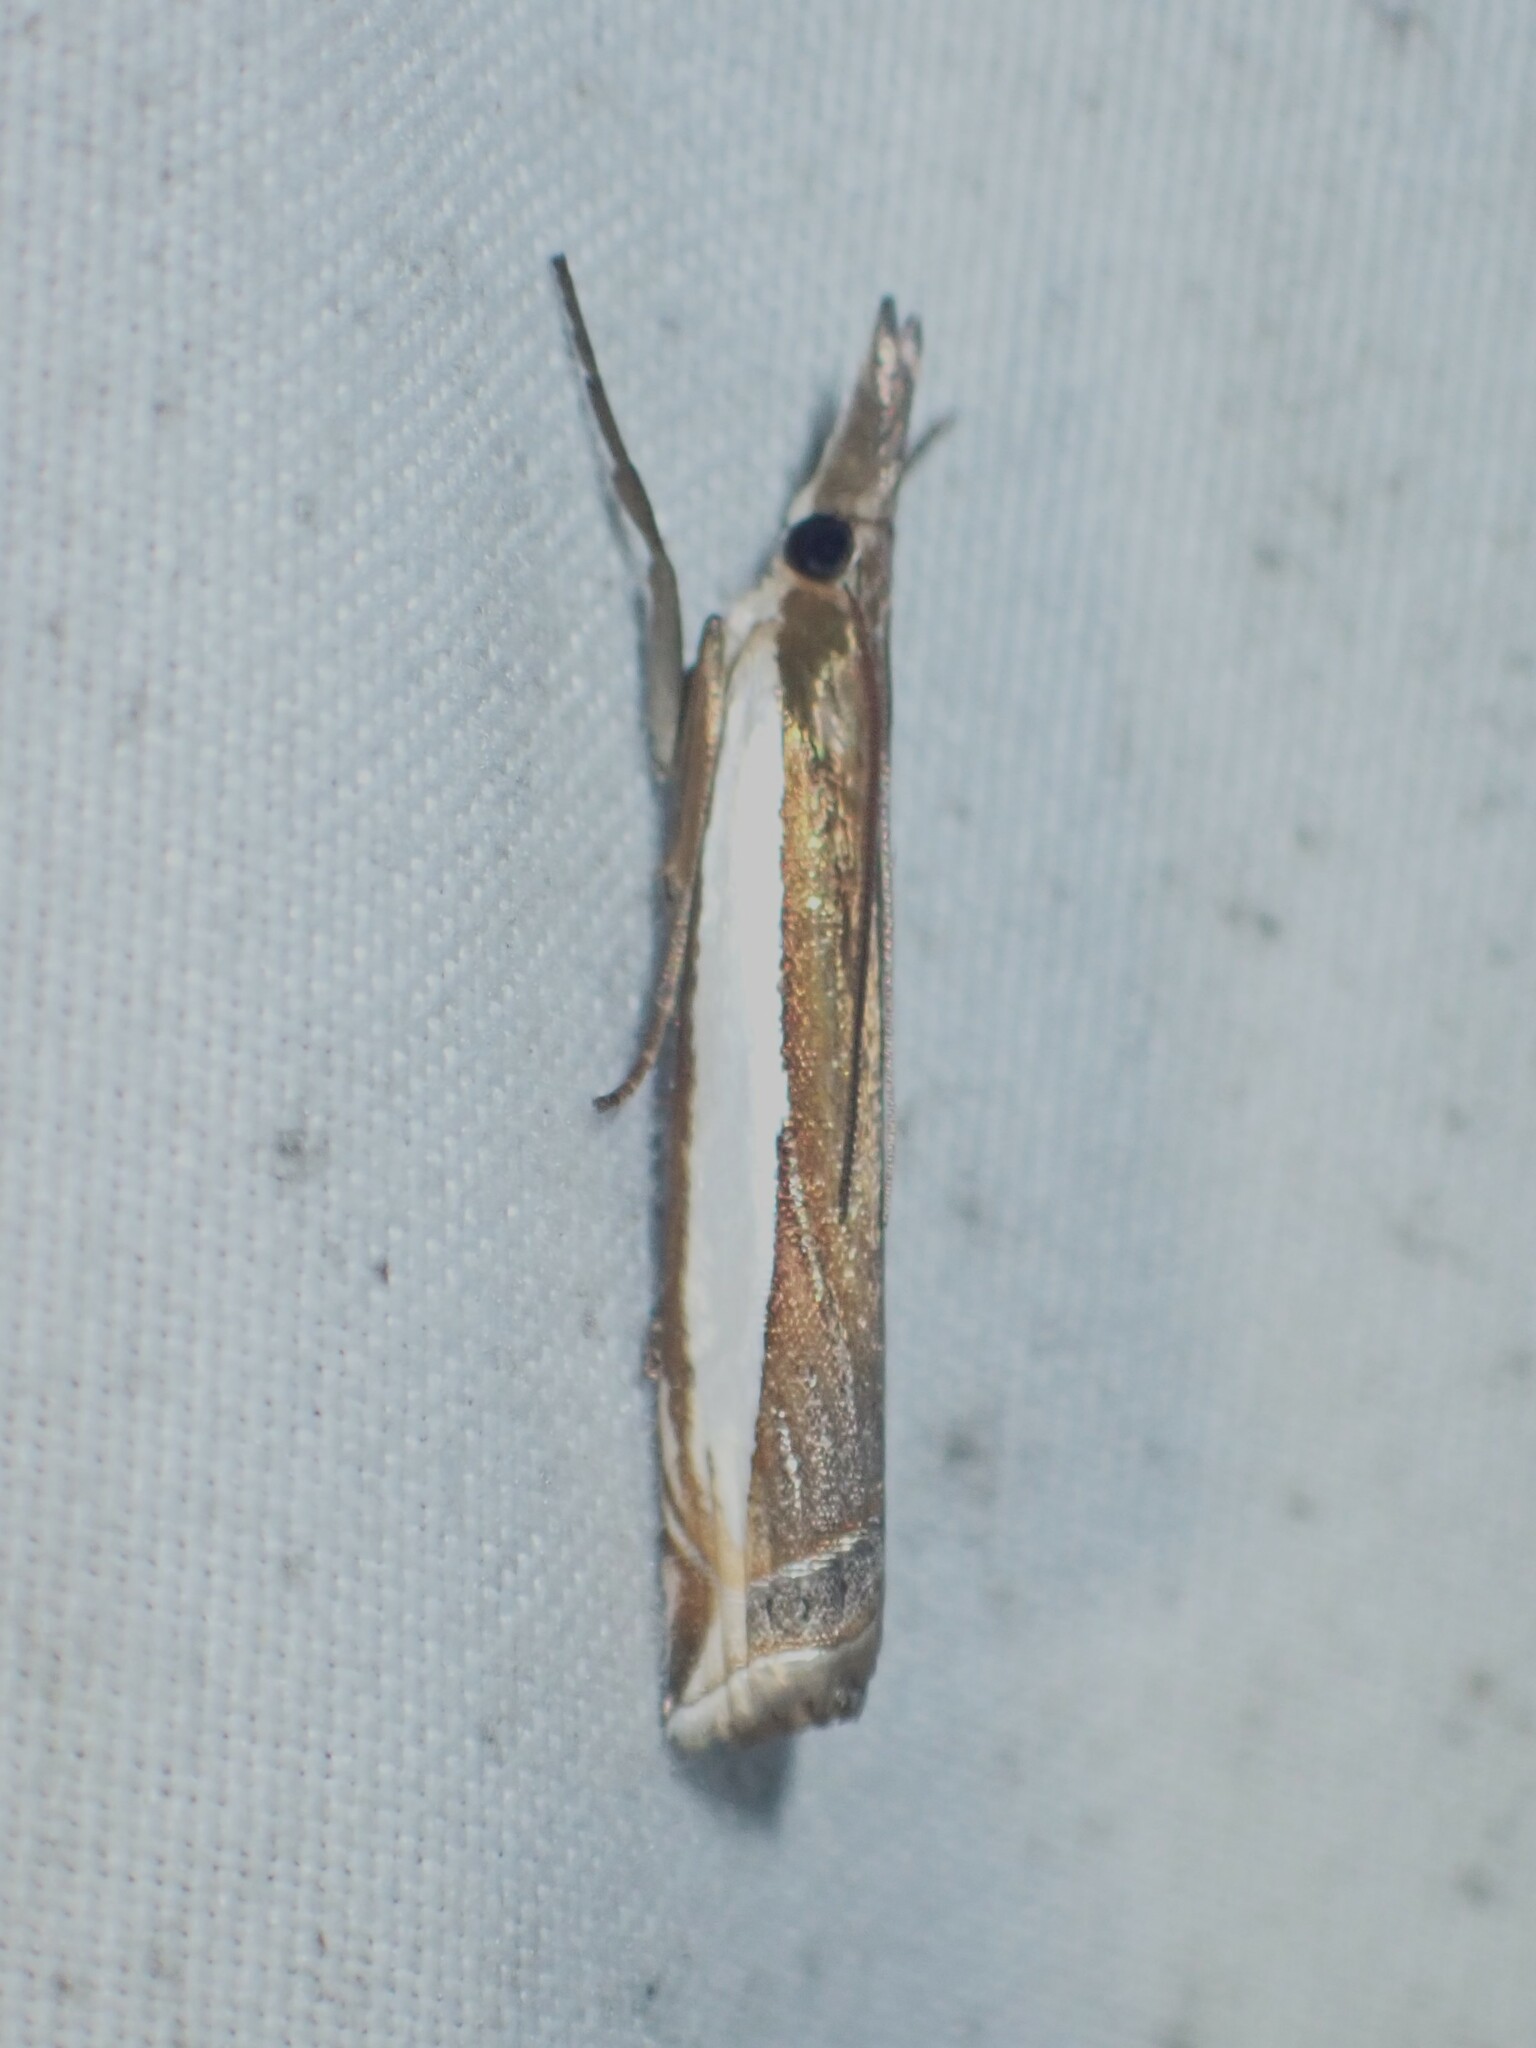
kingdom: Animalia
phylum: Arthropoda
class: Insecta
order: Lepidoptera
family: Crambidae
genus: Crambus
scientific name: Crambus leachellus
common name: Leach's grass-veneer
